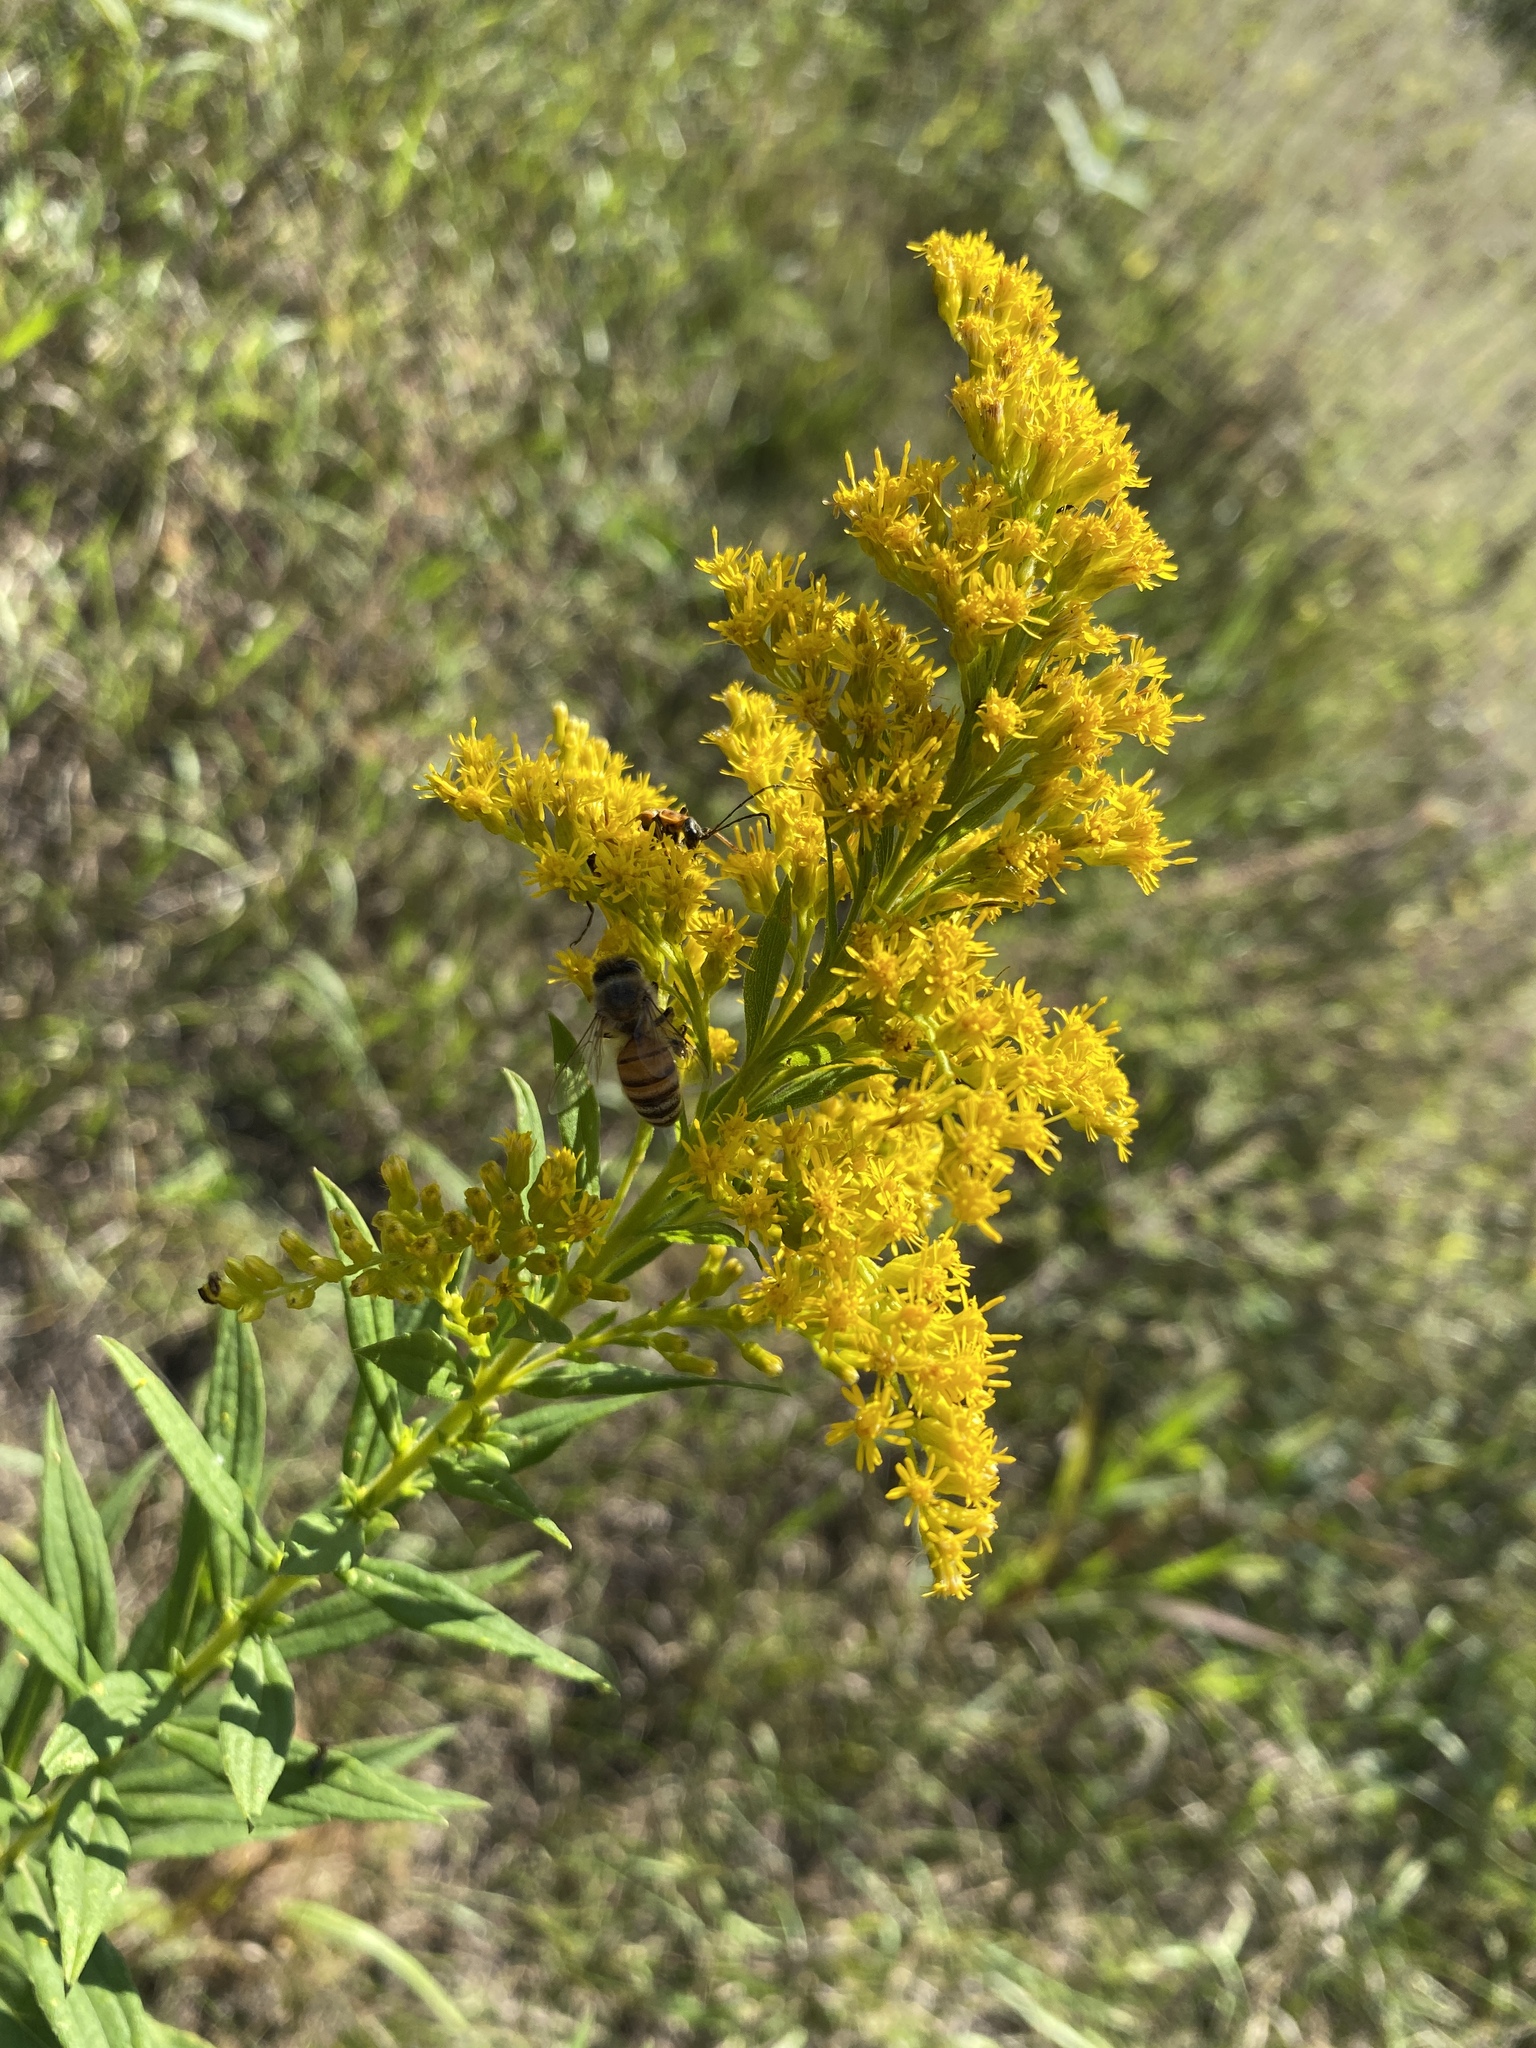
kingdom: Animalia
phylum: Arthropoda
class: Insecta
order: Hymenoptera
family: Apidae
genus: Apis
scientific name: Apis mellifera
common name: Honey bee
